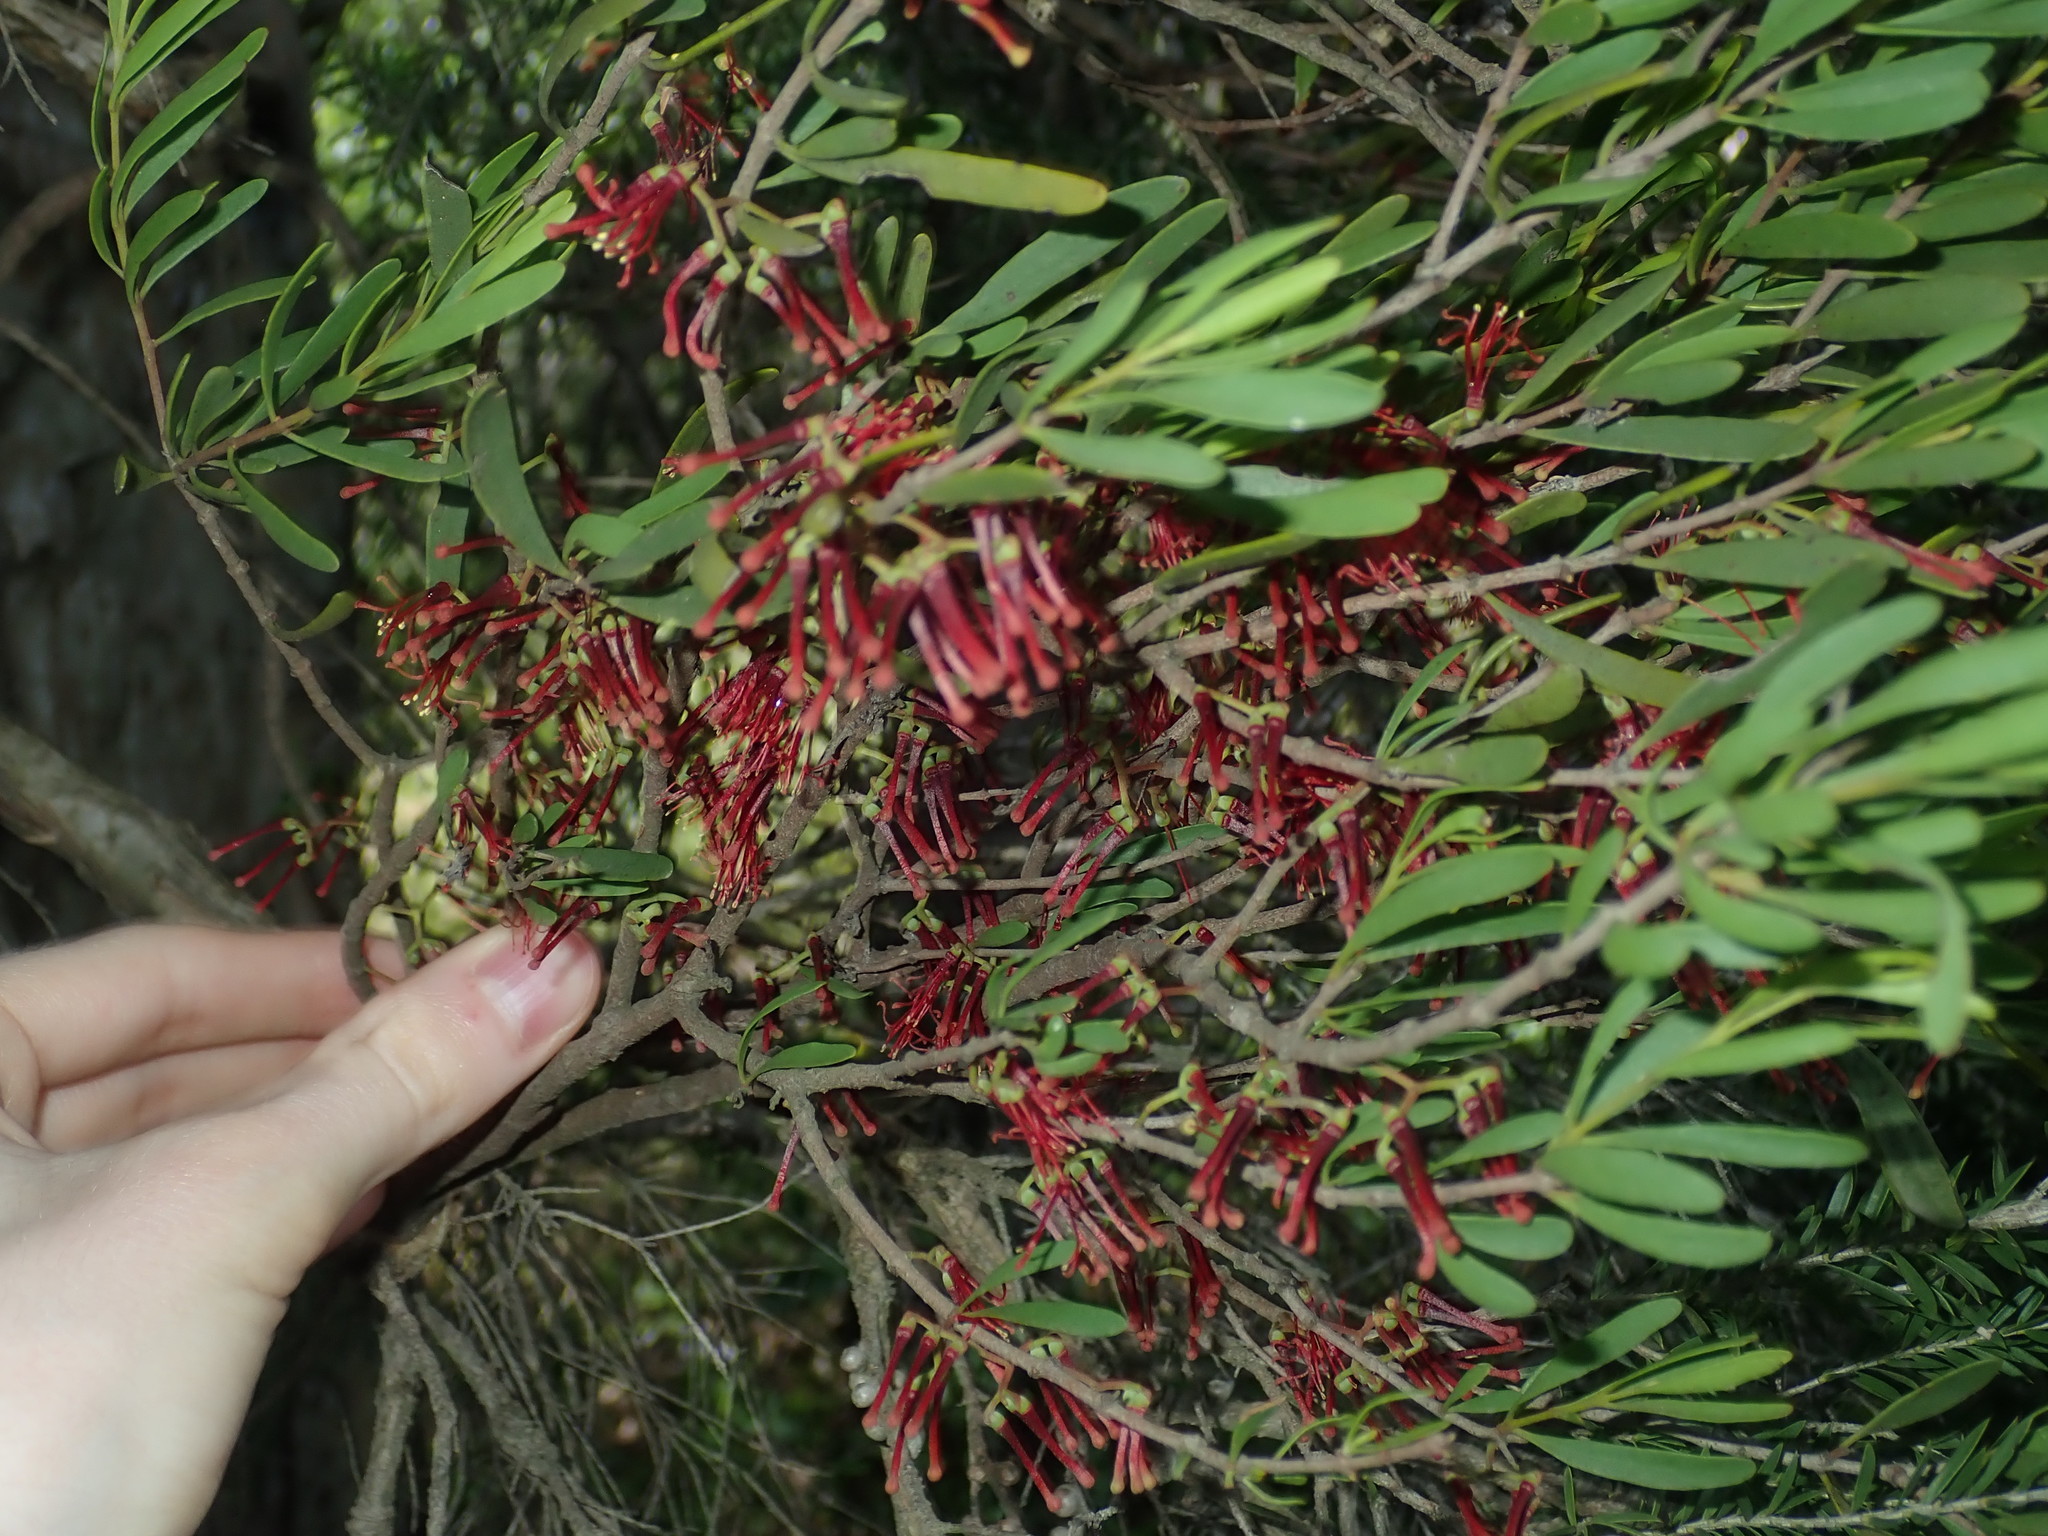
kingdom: Plantae
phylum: Tracheophyta
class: Magnoliopsida
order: Santalales
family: Loranthaceae
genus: Amyema
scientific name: Amyema gaudichaudii
